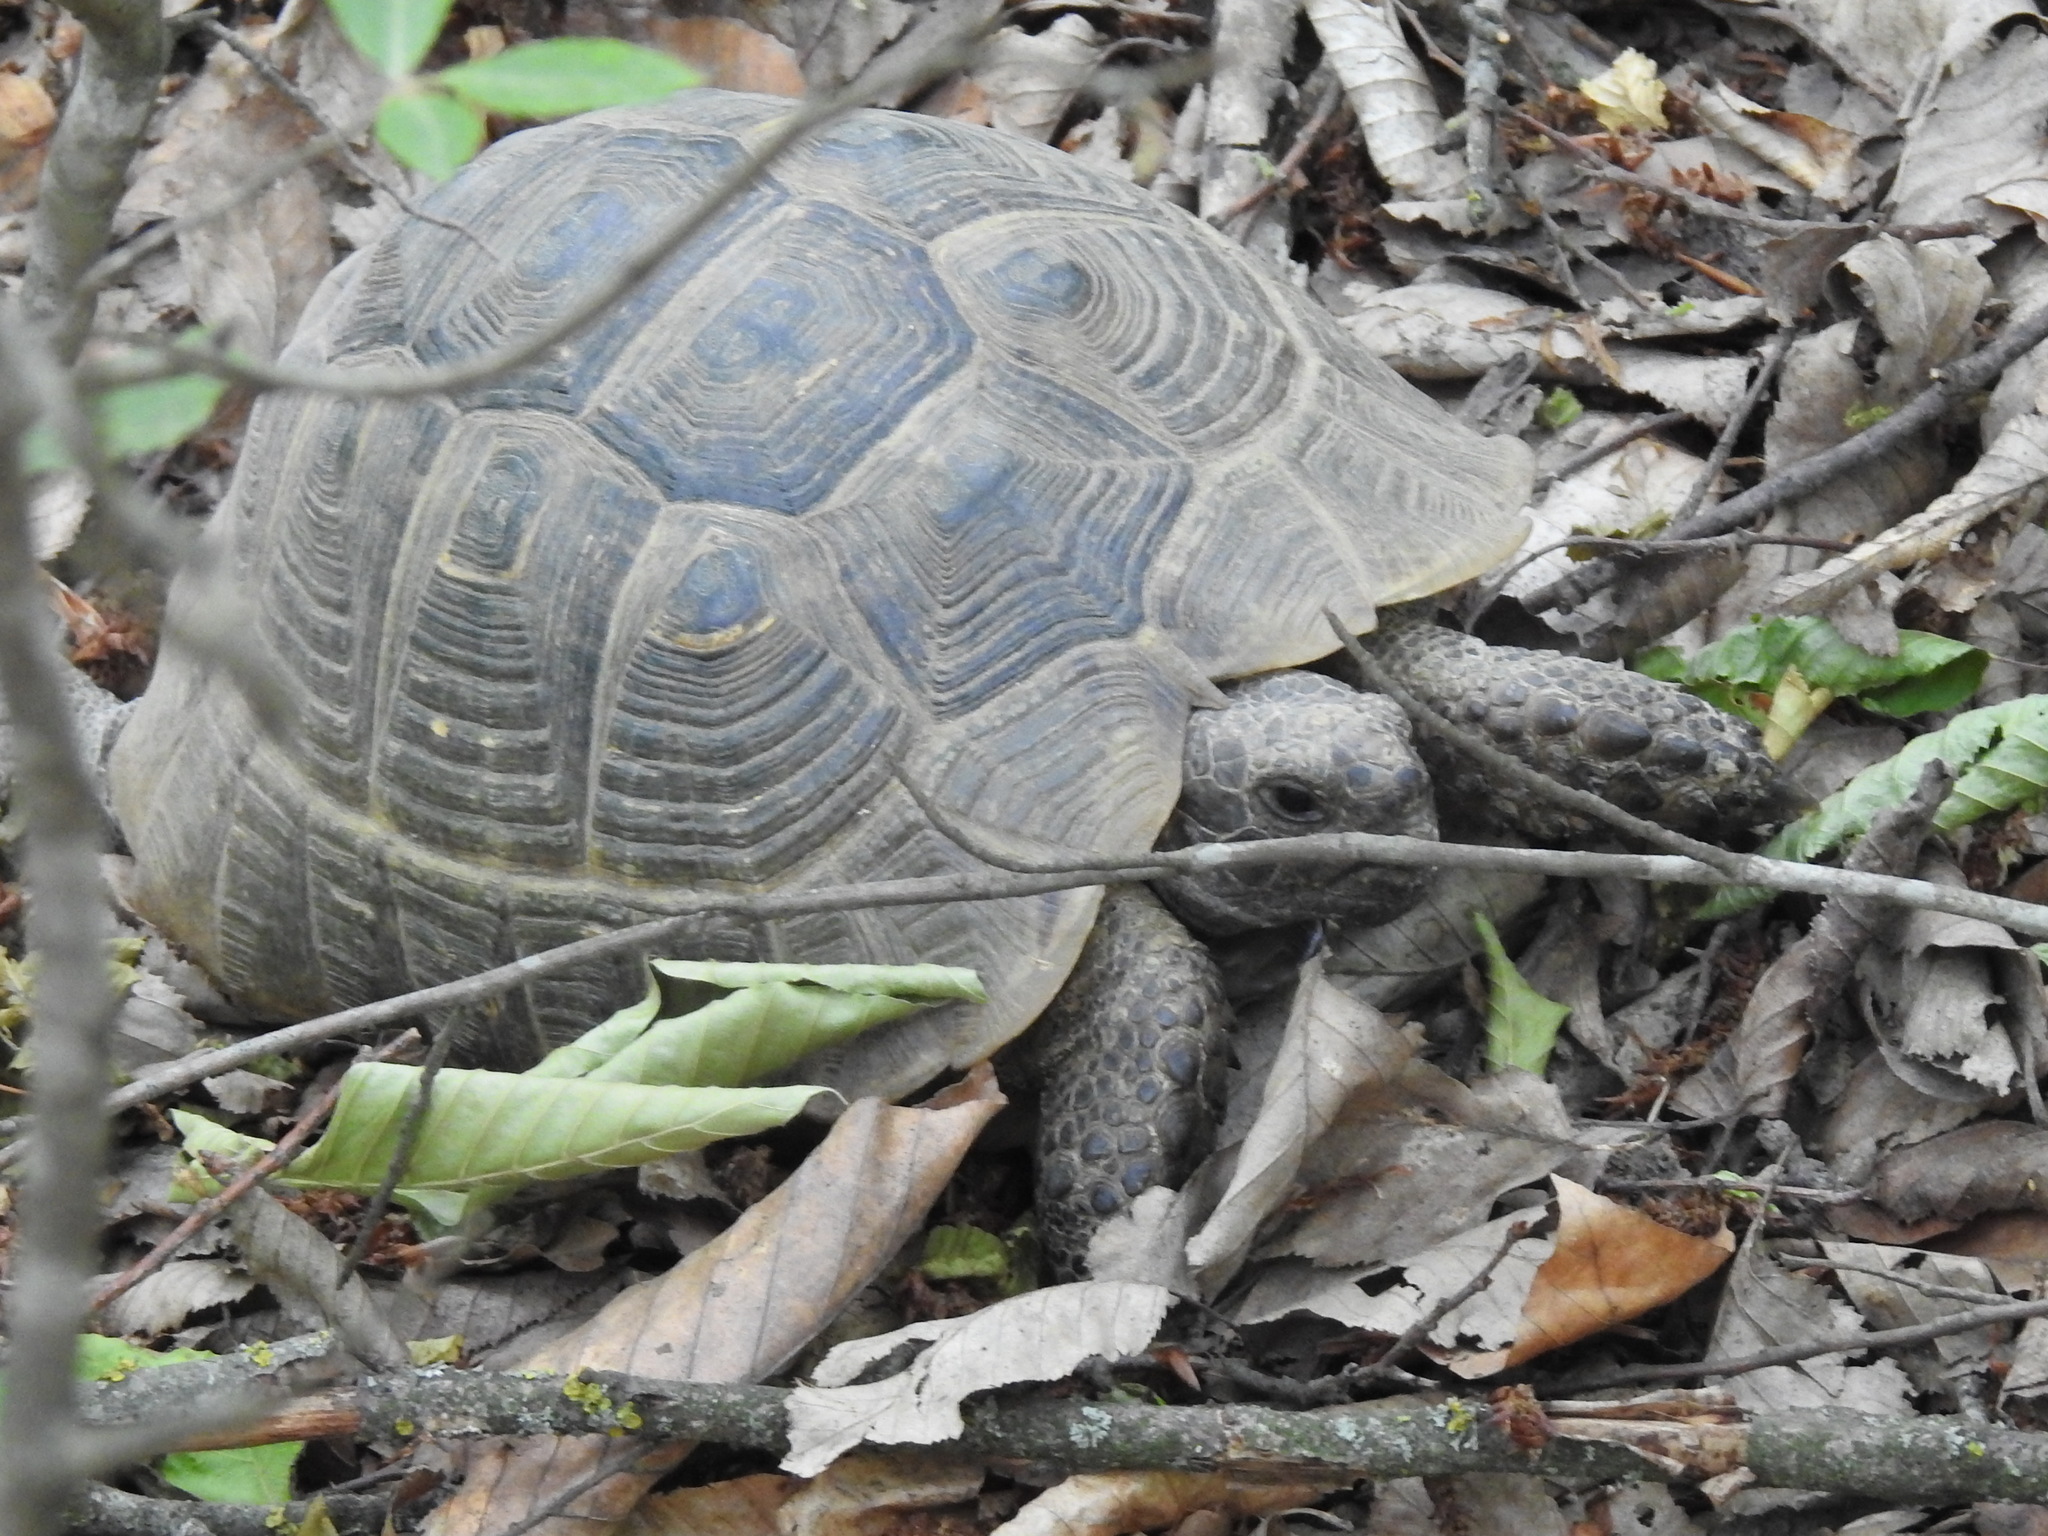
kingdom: Animalia
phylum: Chordata
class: Testudines
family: Testudinidae
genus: Testudo
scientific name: Testudo graeca
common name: Common tortoise
